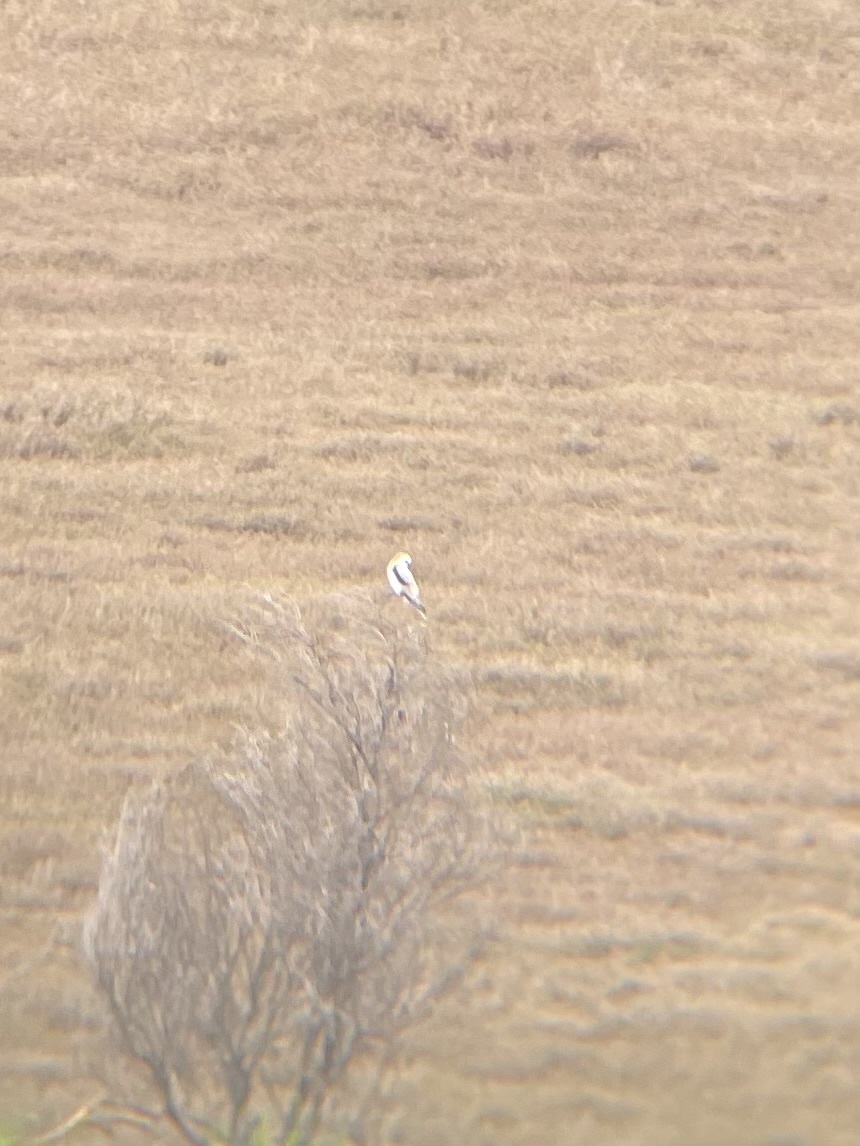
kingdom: Animalia
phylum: Chordata
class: Aves
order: Accipitriformes
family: Accipitridae
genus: Elanus
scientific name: Elanus leucurus
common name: White-tailed kite
